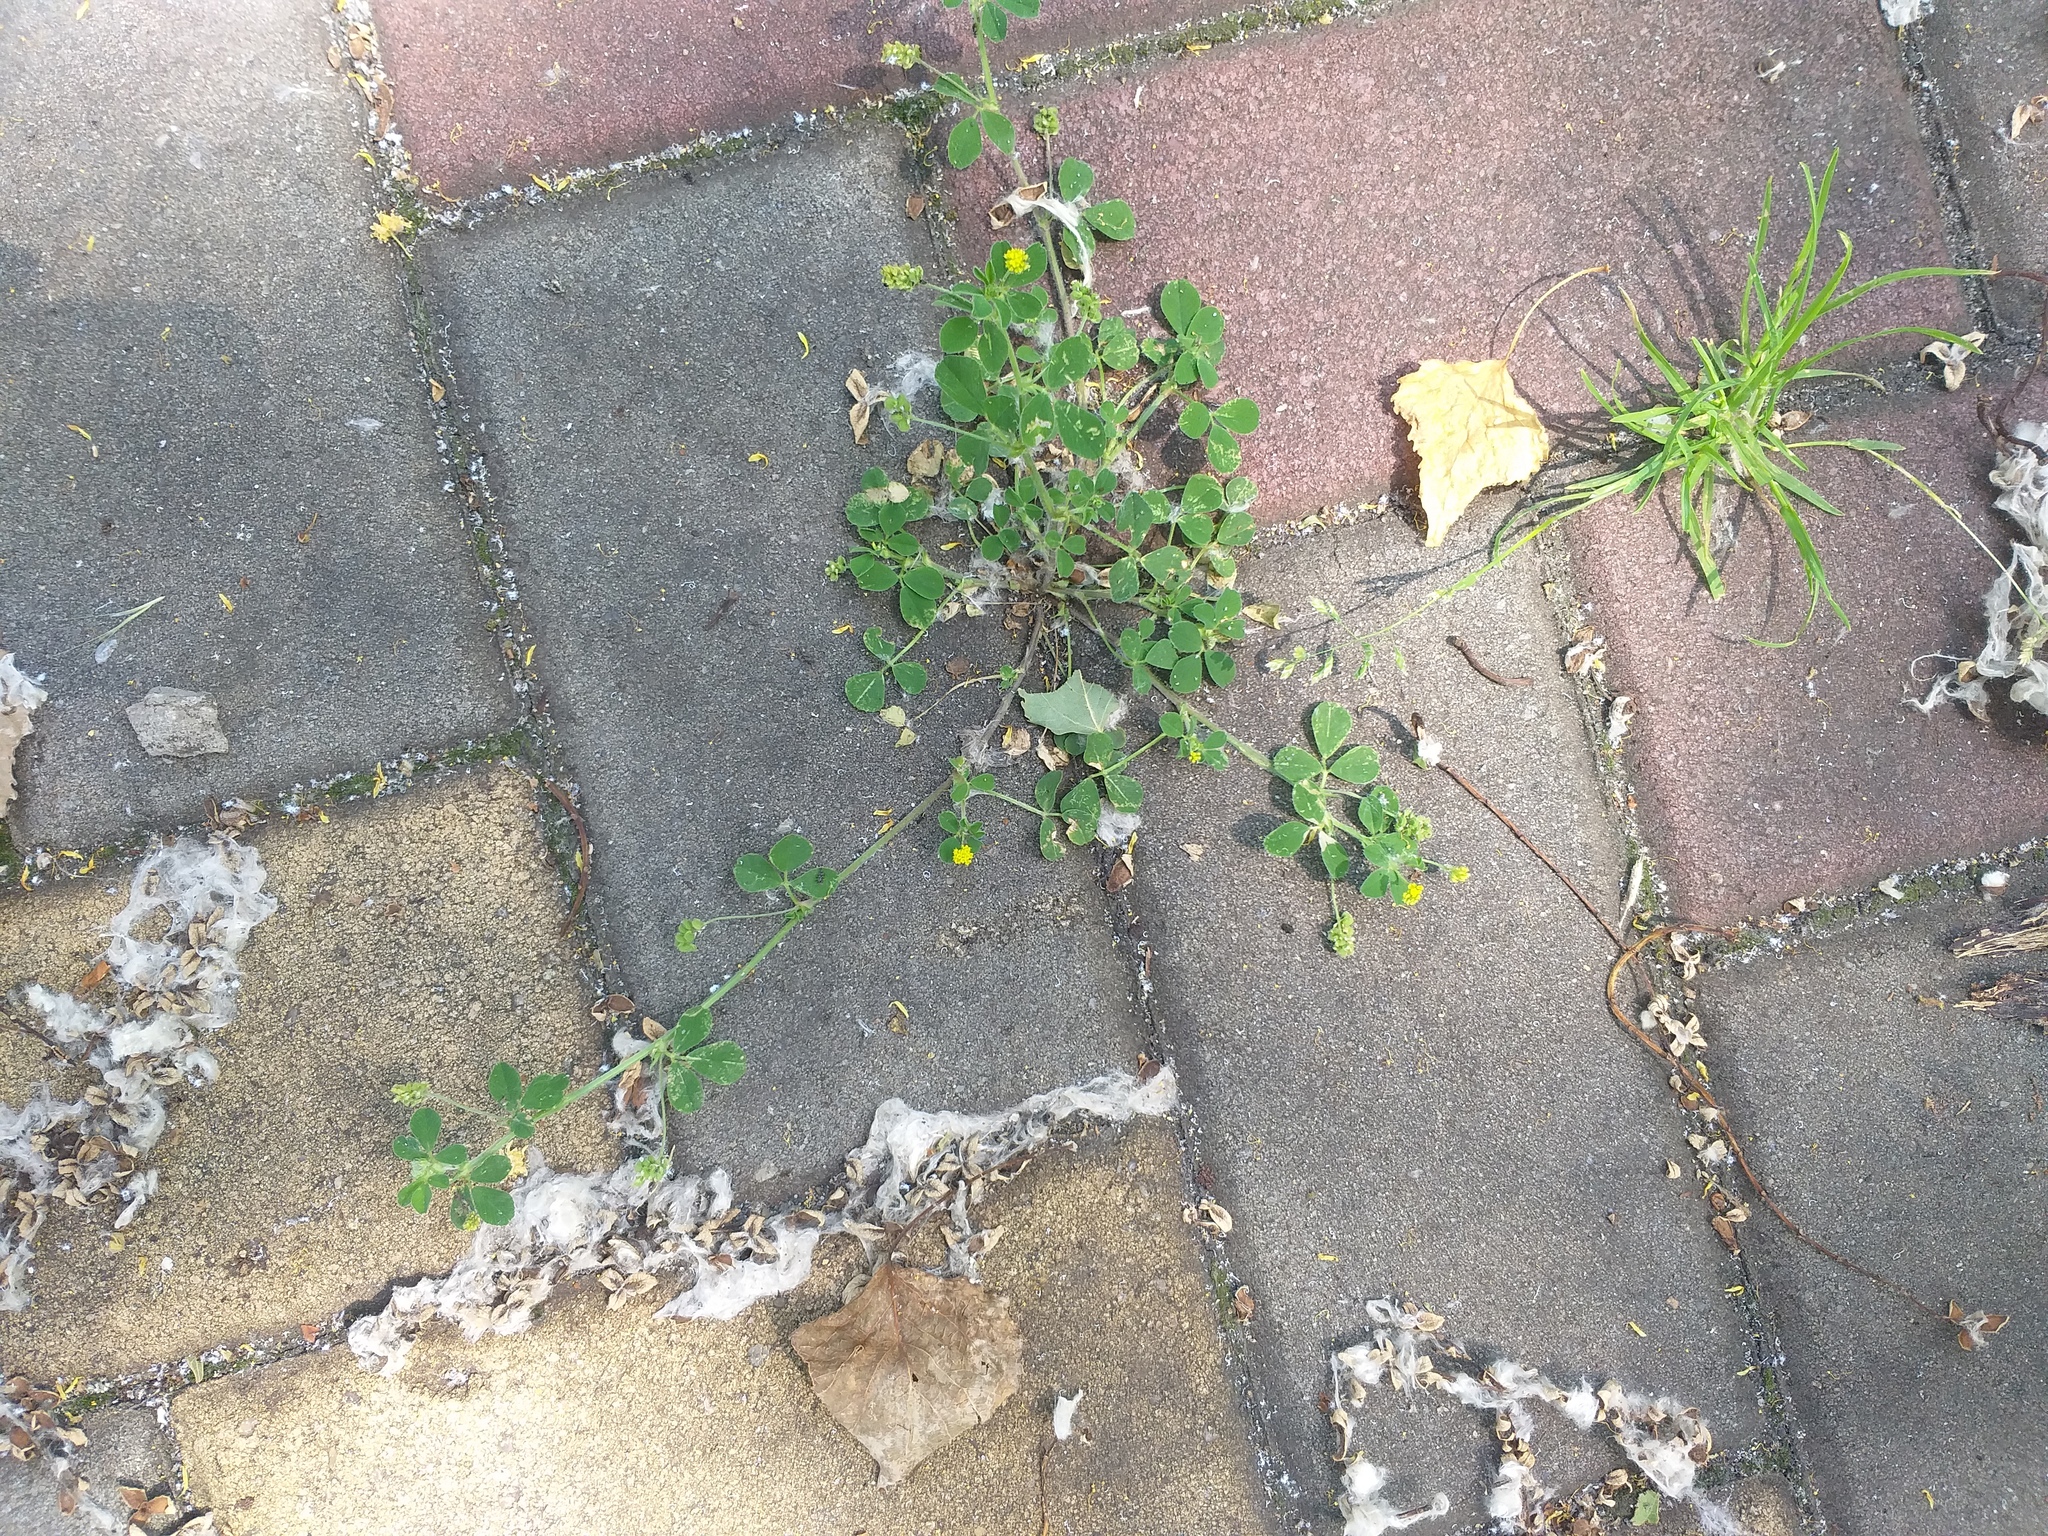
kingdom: Plantae
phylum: Tracheophyta
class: Magnoliopsida
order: Fabales
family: Fabaceae
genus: Medicago
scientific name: Medicago lupulina
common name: Black medick
